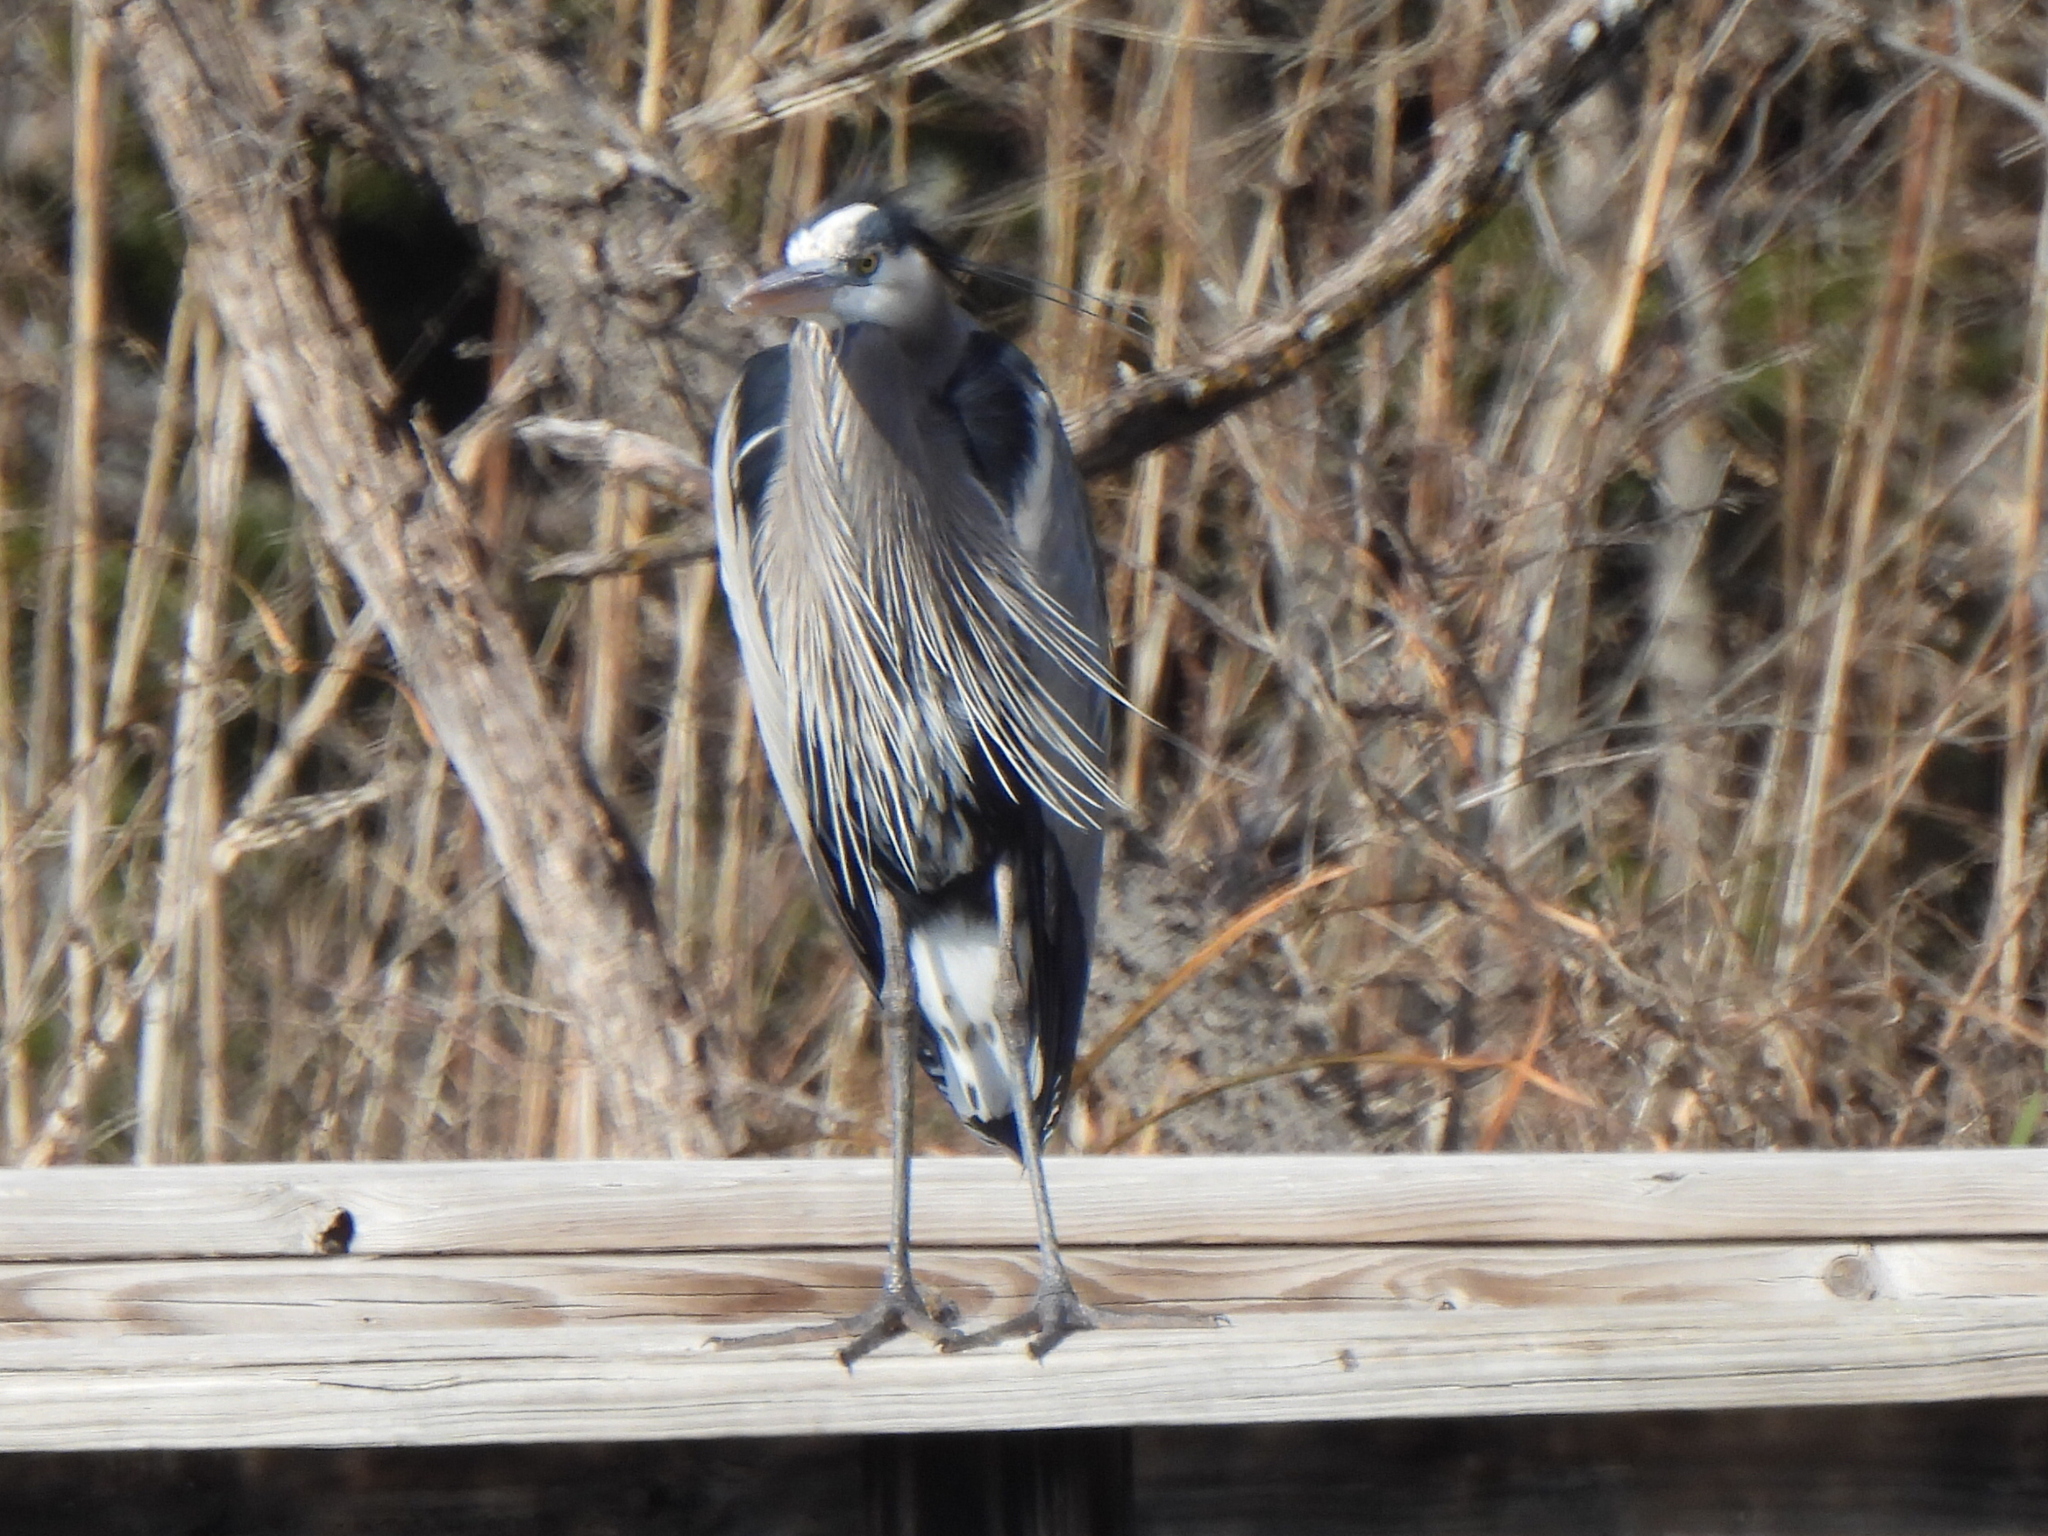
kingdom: Animalia
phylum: Chordata
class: Aves
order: Pelecaniformes
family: Ardeidae
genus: Ardea
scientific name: Ardea herodias
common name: Great blue heron
